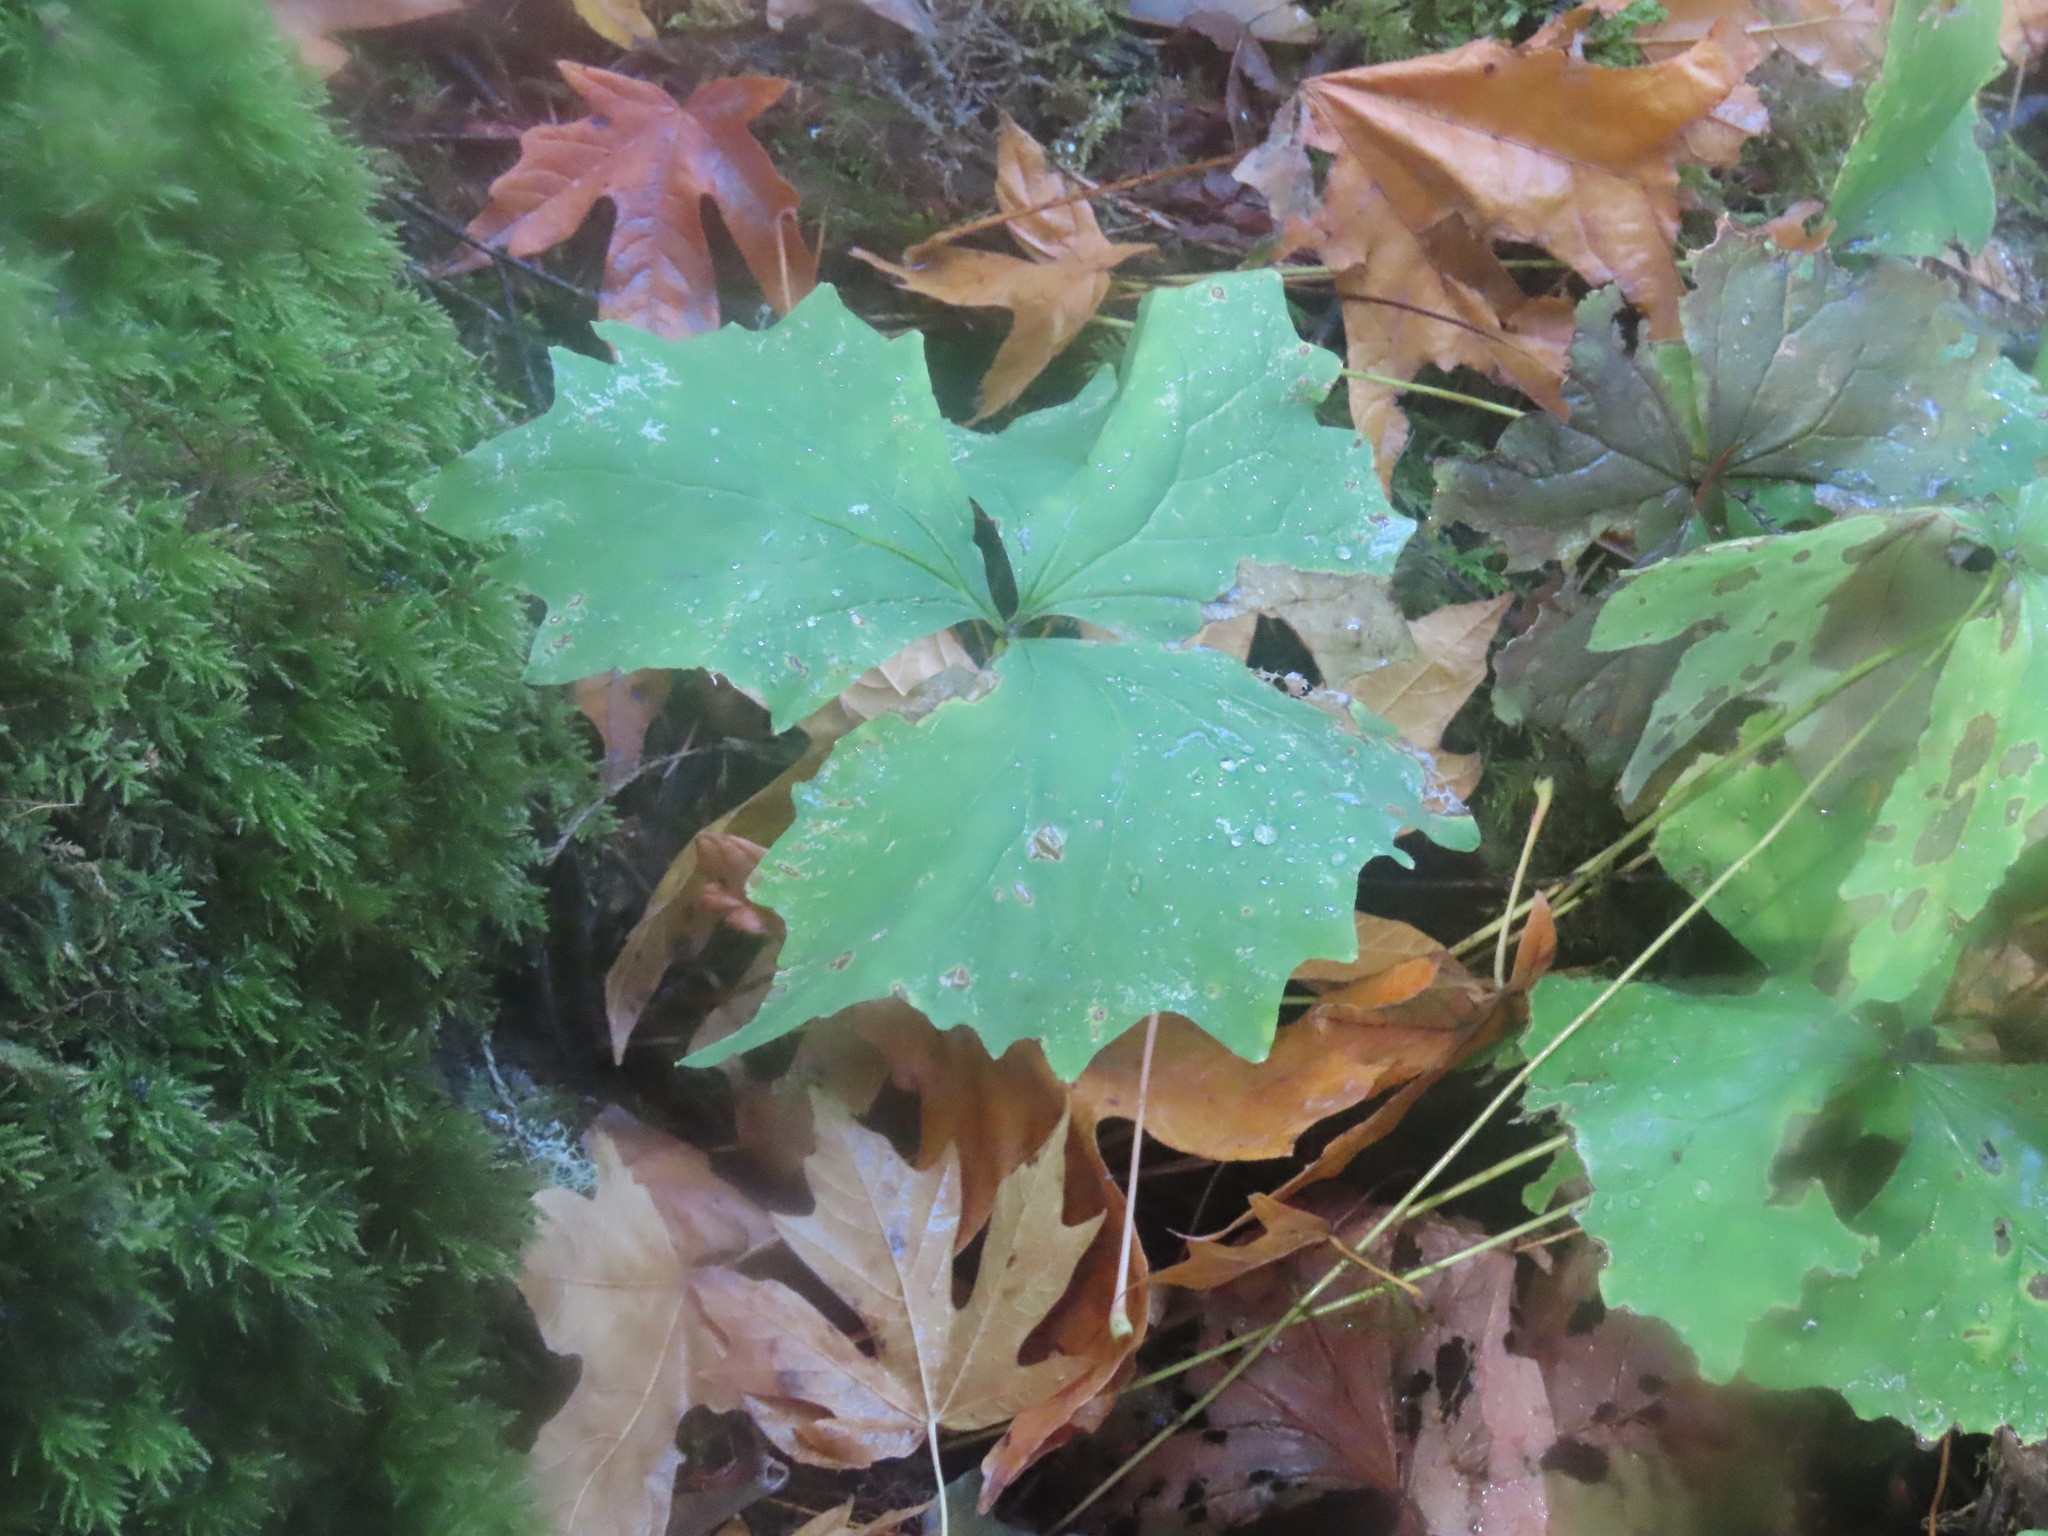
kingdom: Plantae
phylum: Tracheophyta
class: Magnoliopsida
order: Ranunculales
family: Berberidaceae
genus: Achlys
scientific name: Achlys triphylla
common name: Vanilla-leaf
